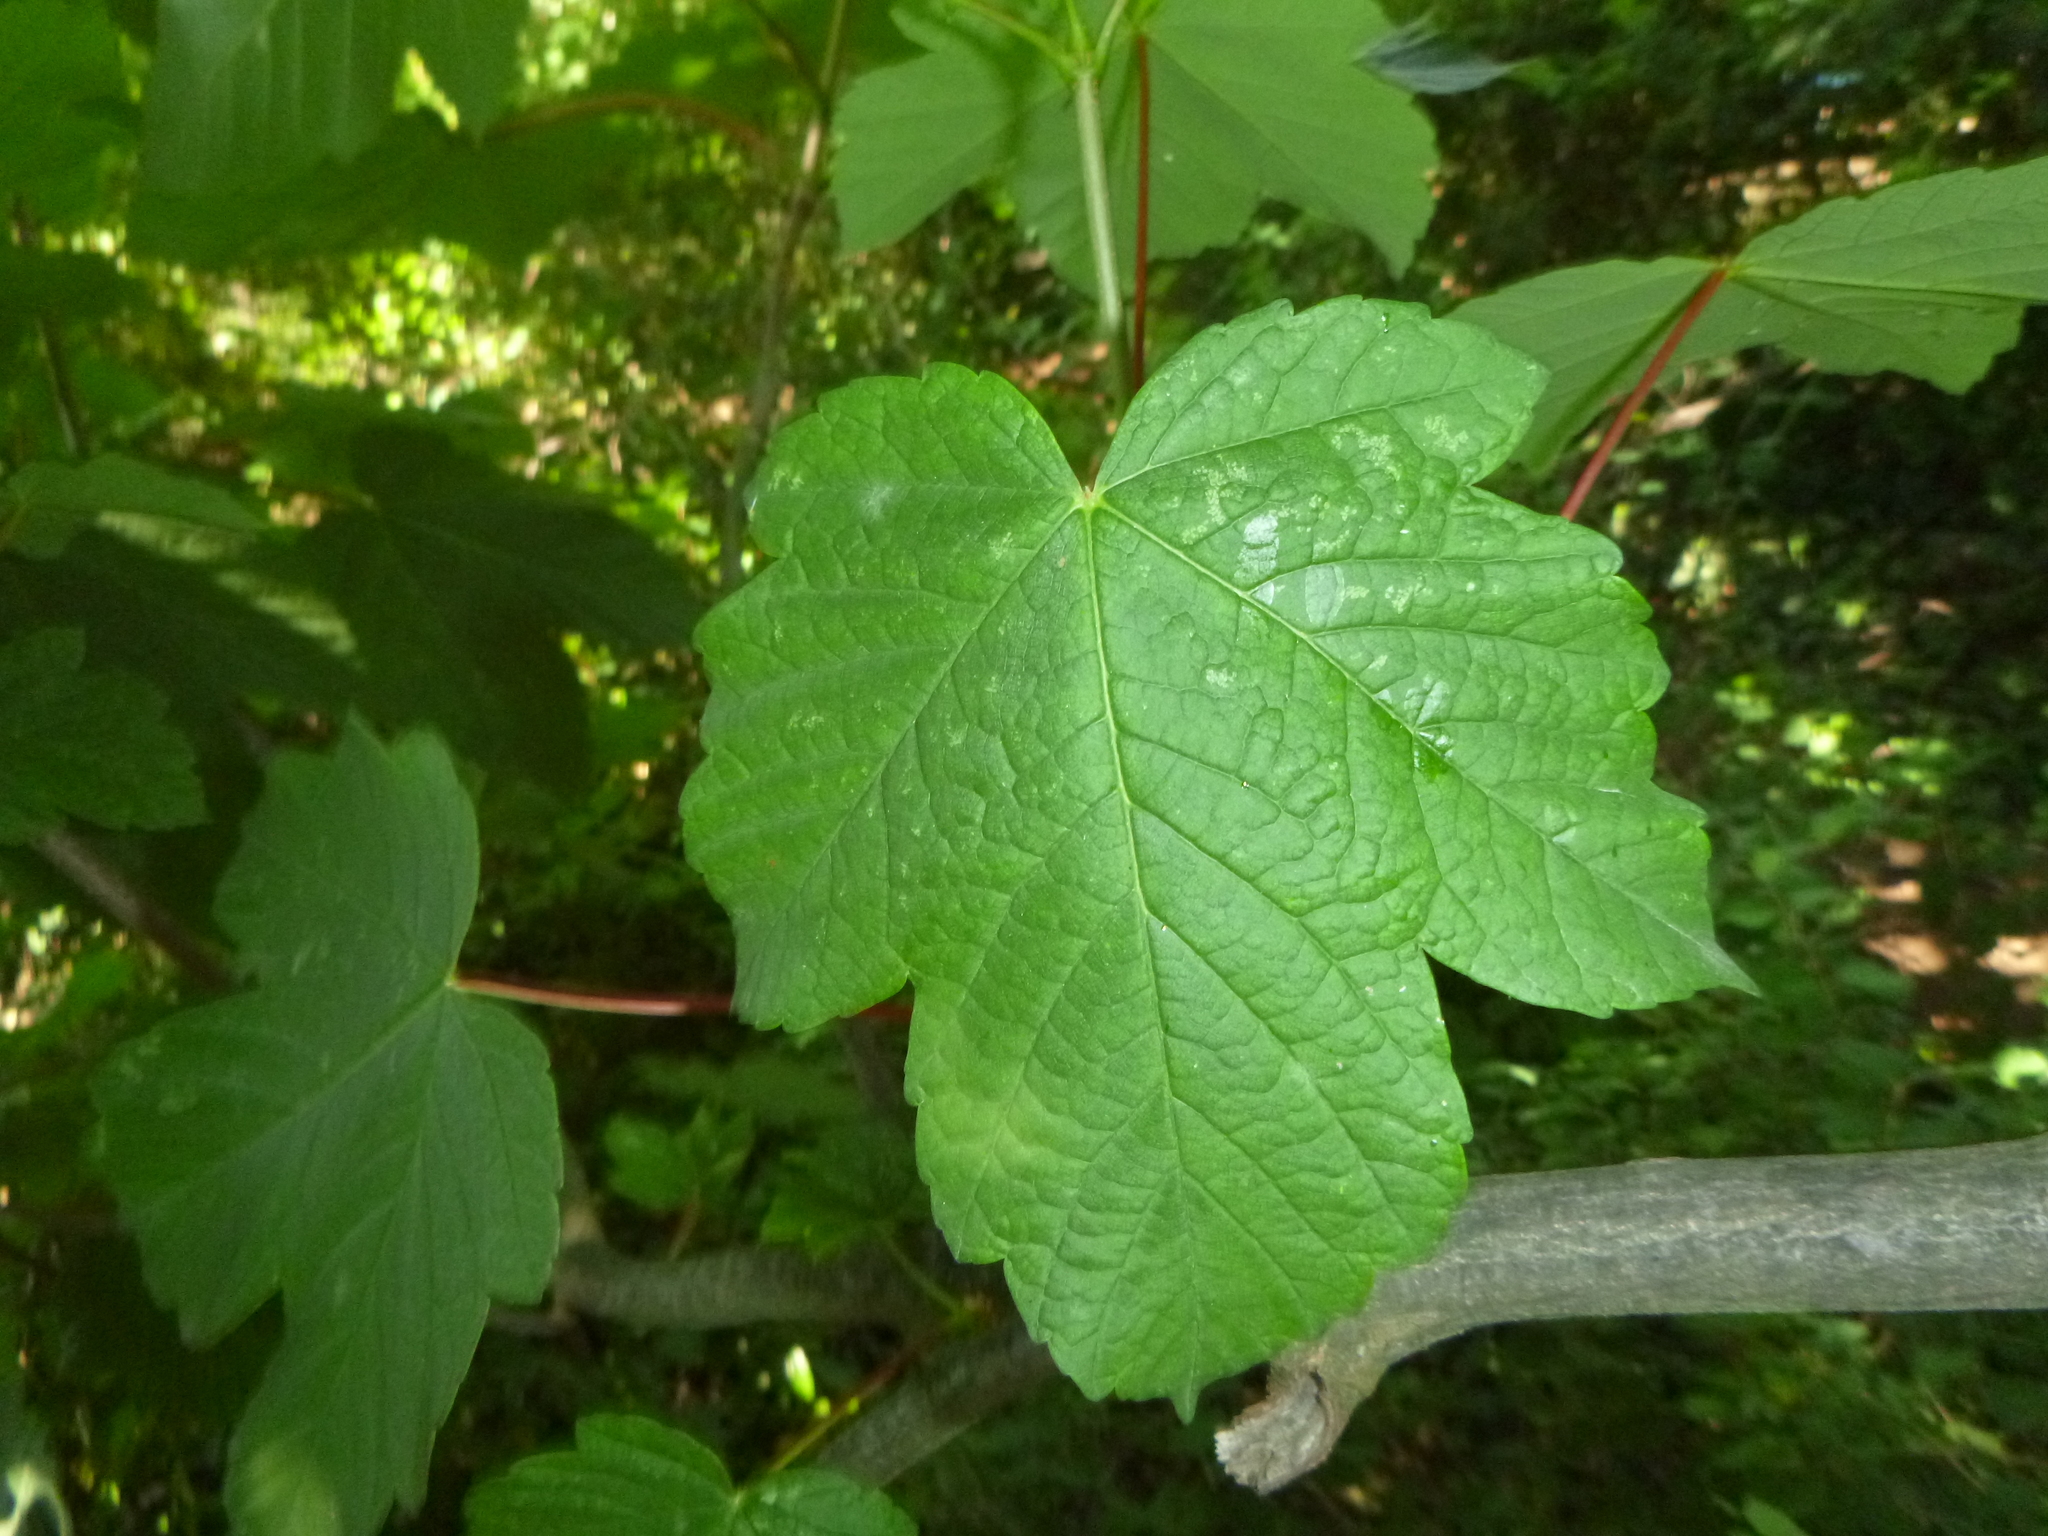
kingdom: Plantae
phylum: Tracheophyta
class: Magnoliopsida
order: Sapindales
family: Sapindaceae
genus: Acer
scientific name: Acer pseudoplatanus
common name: Sycamore
